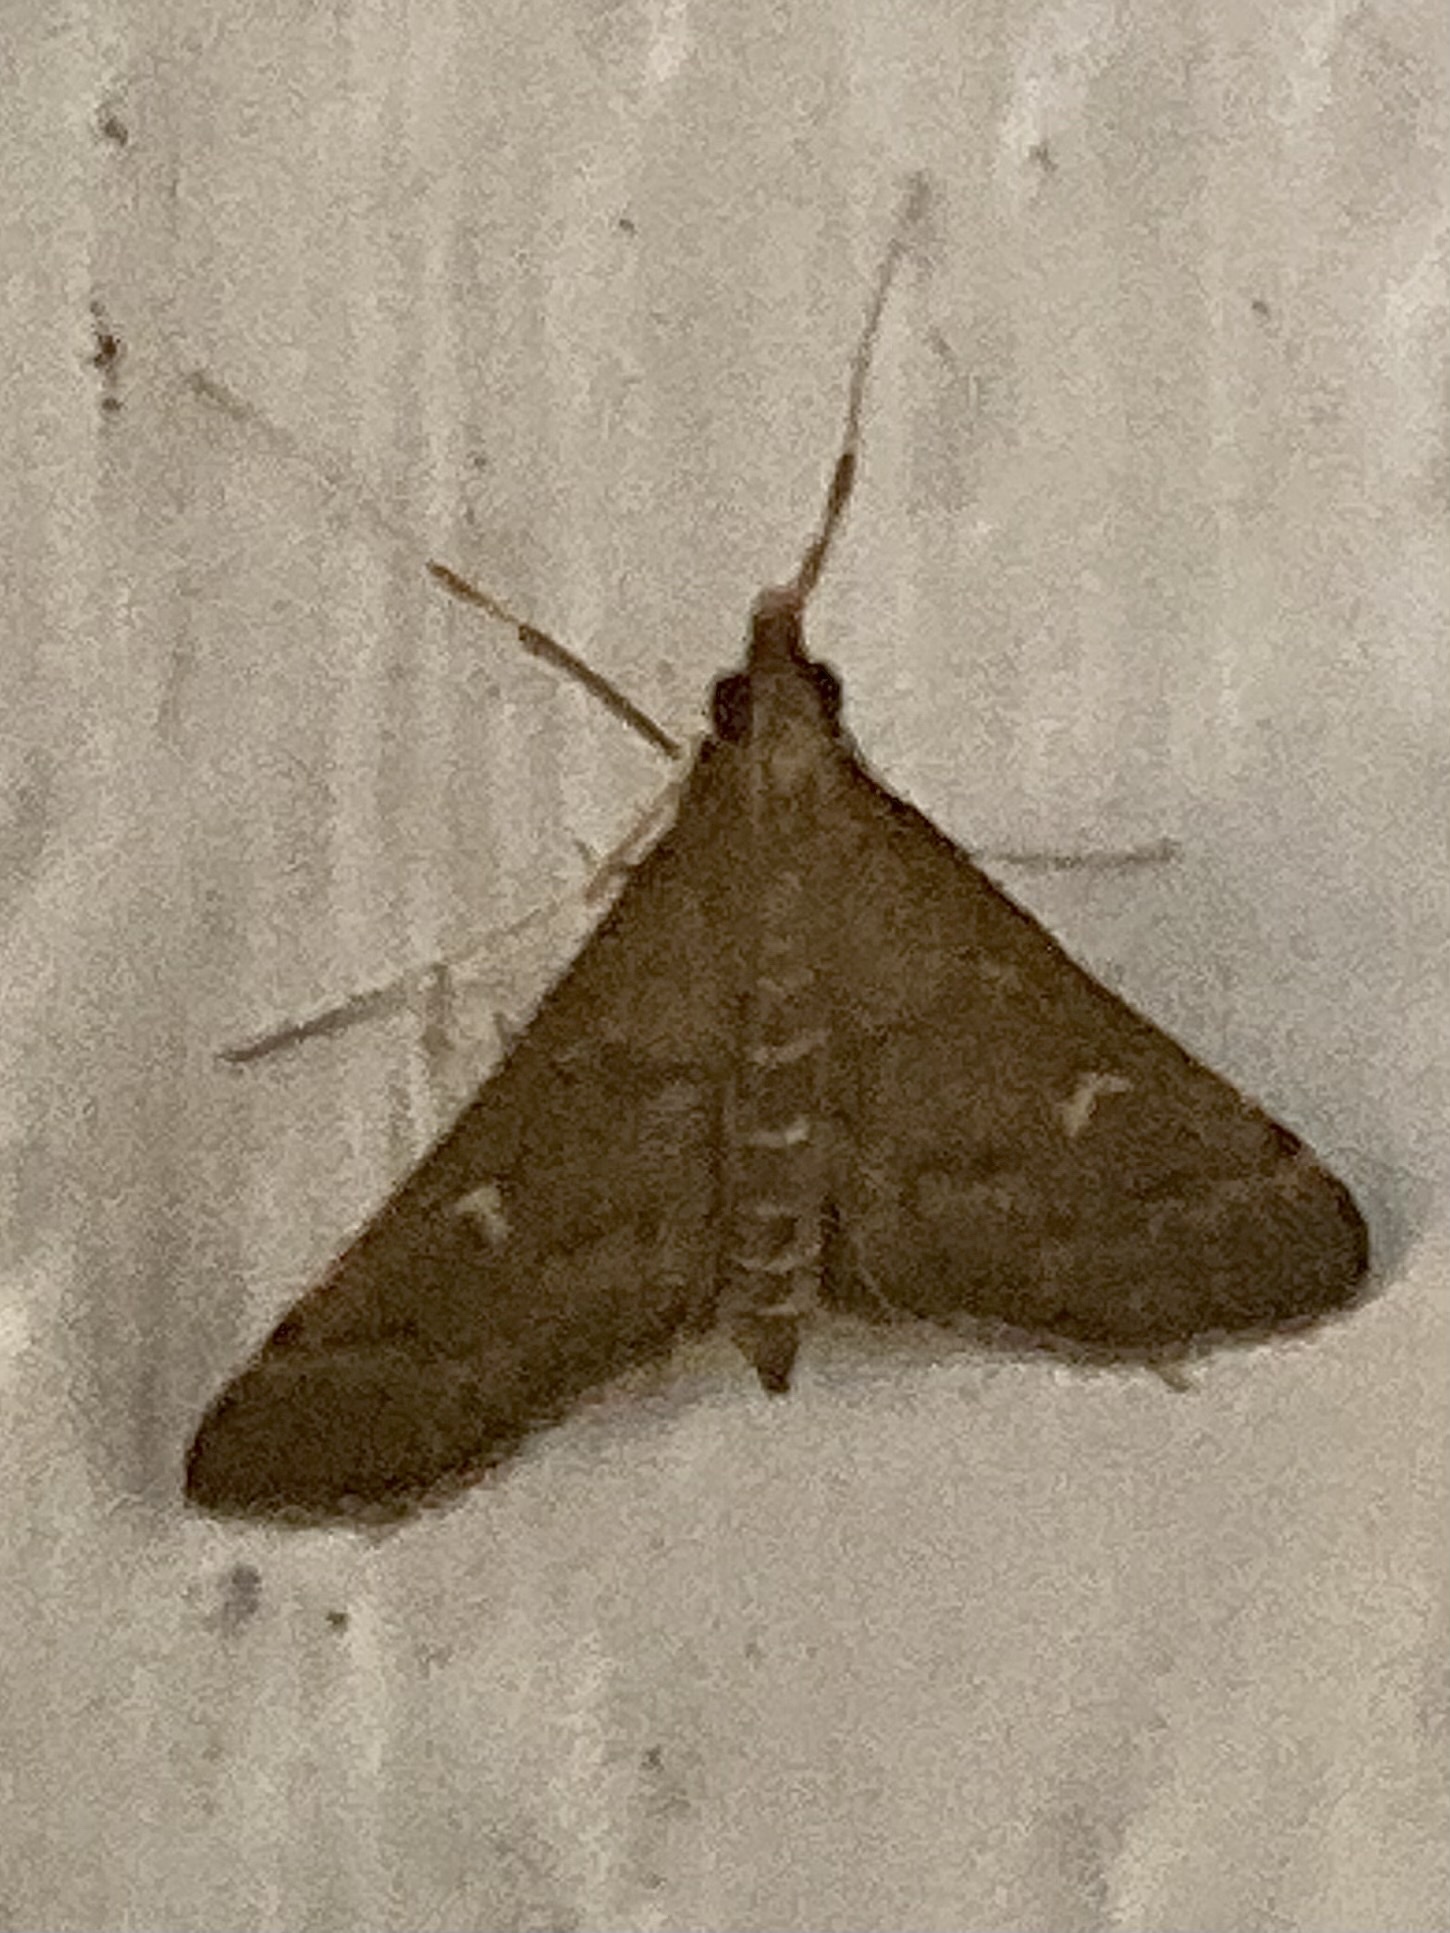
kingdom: Animalia
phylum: Arthropoda
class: Insecta
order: Lepidoptera
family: Crambidae
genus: Stenia
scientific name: Stenia Dolicharthria punctalis
